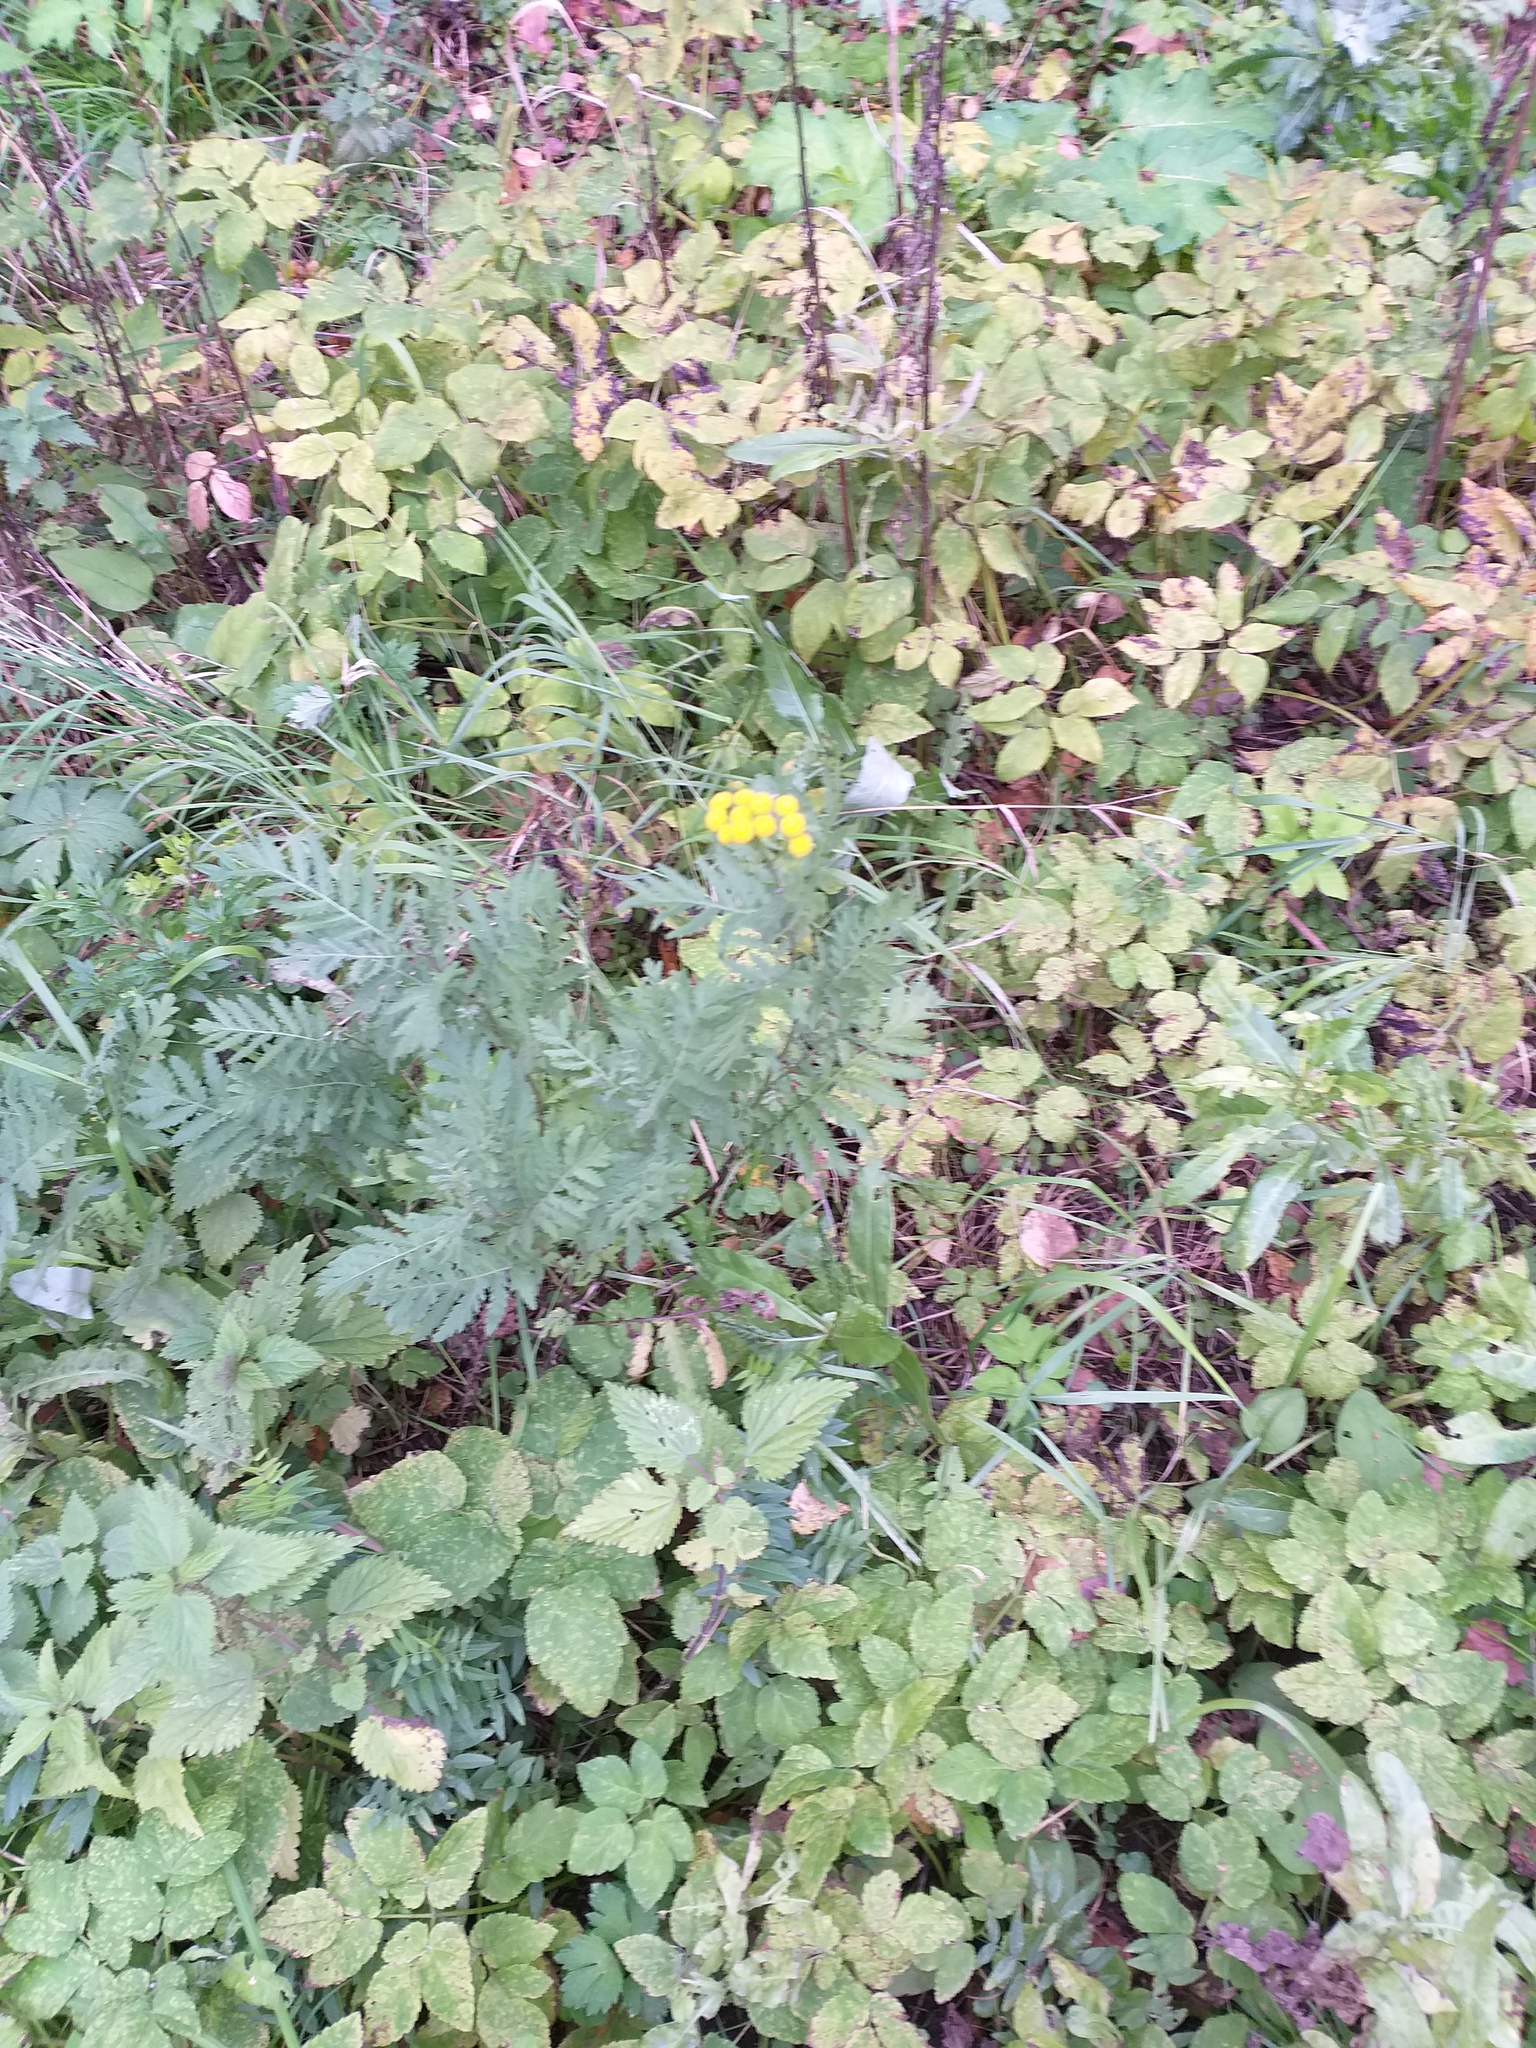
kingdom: Plantae
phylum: Tracheophyta
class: Magnoliopsida
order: Asterales
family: Asteraceae
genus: Tanacetum
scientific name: Tanacetum vulgare
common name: Common tansy
